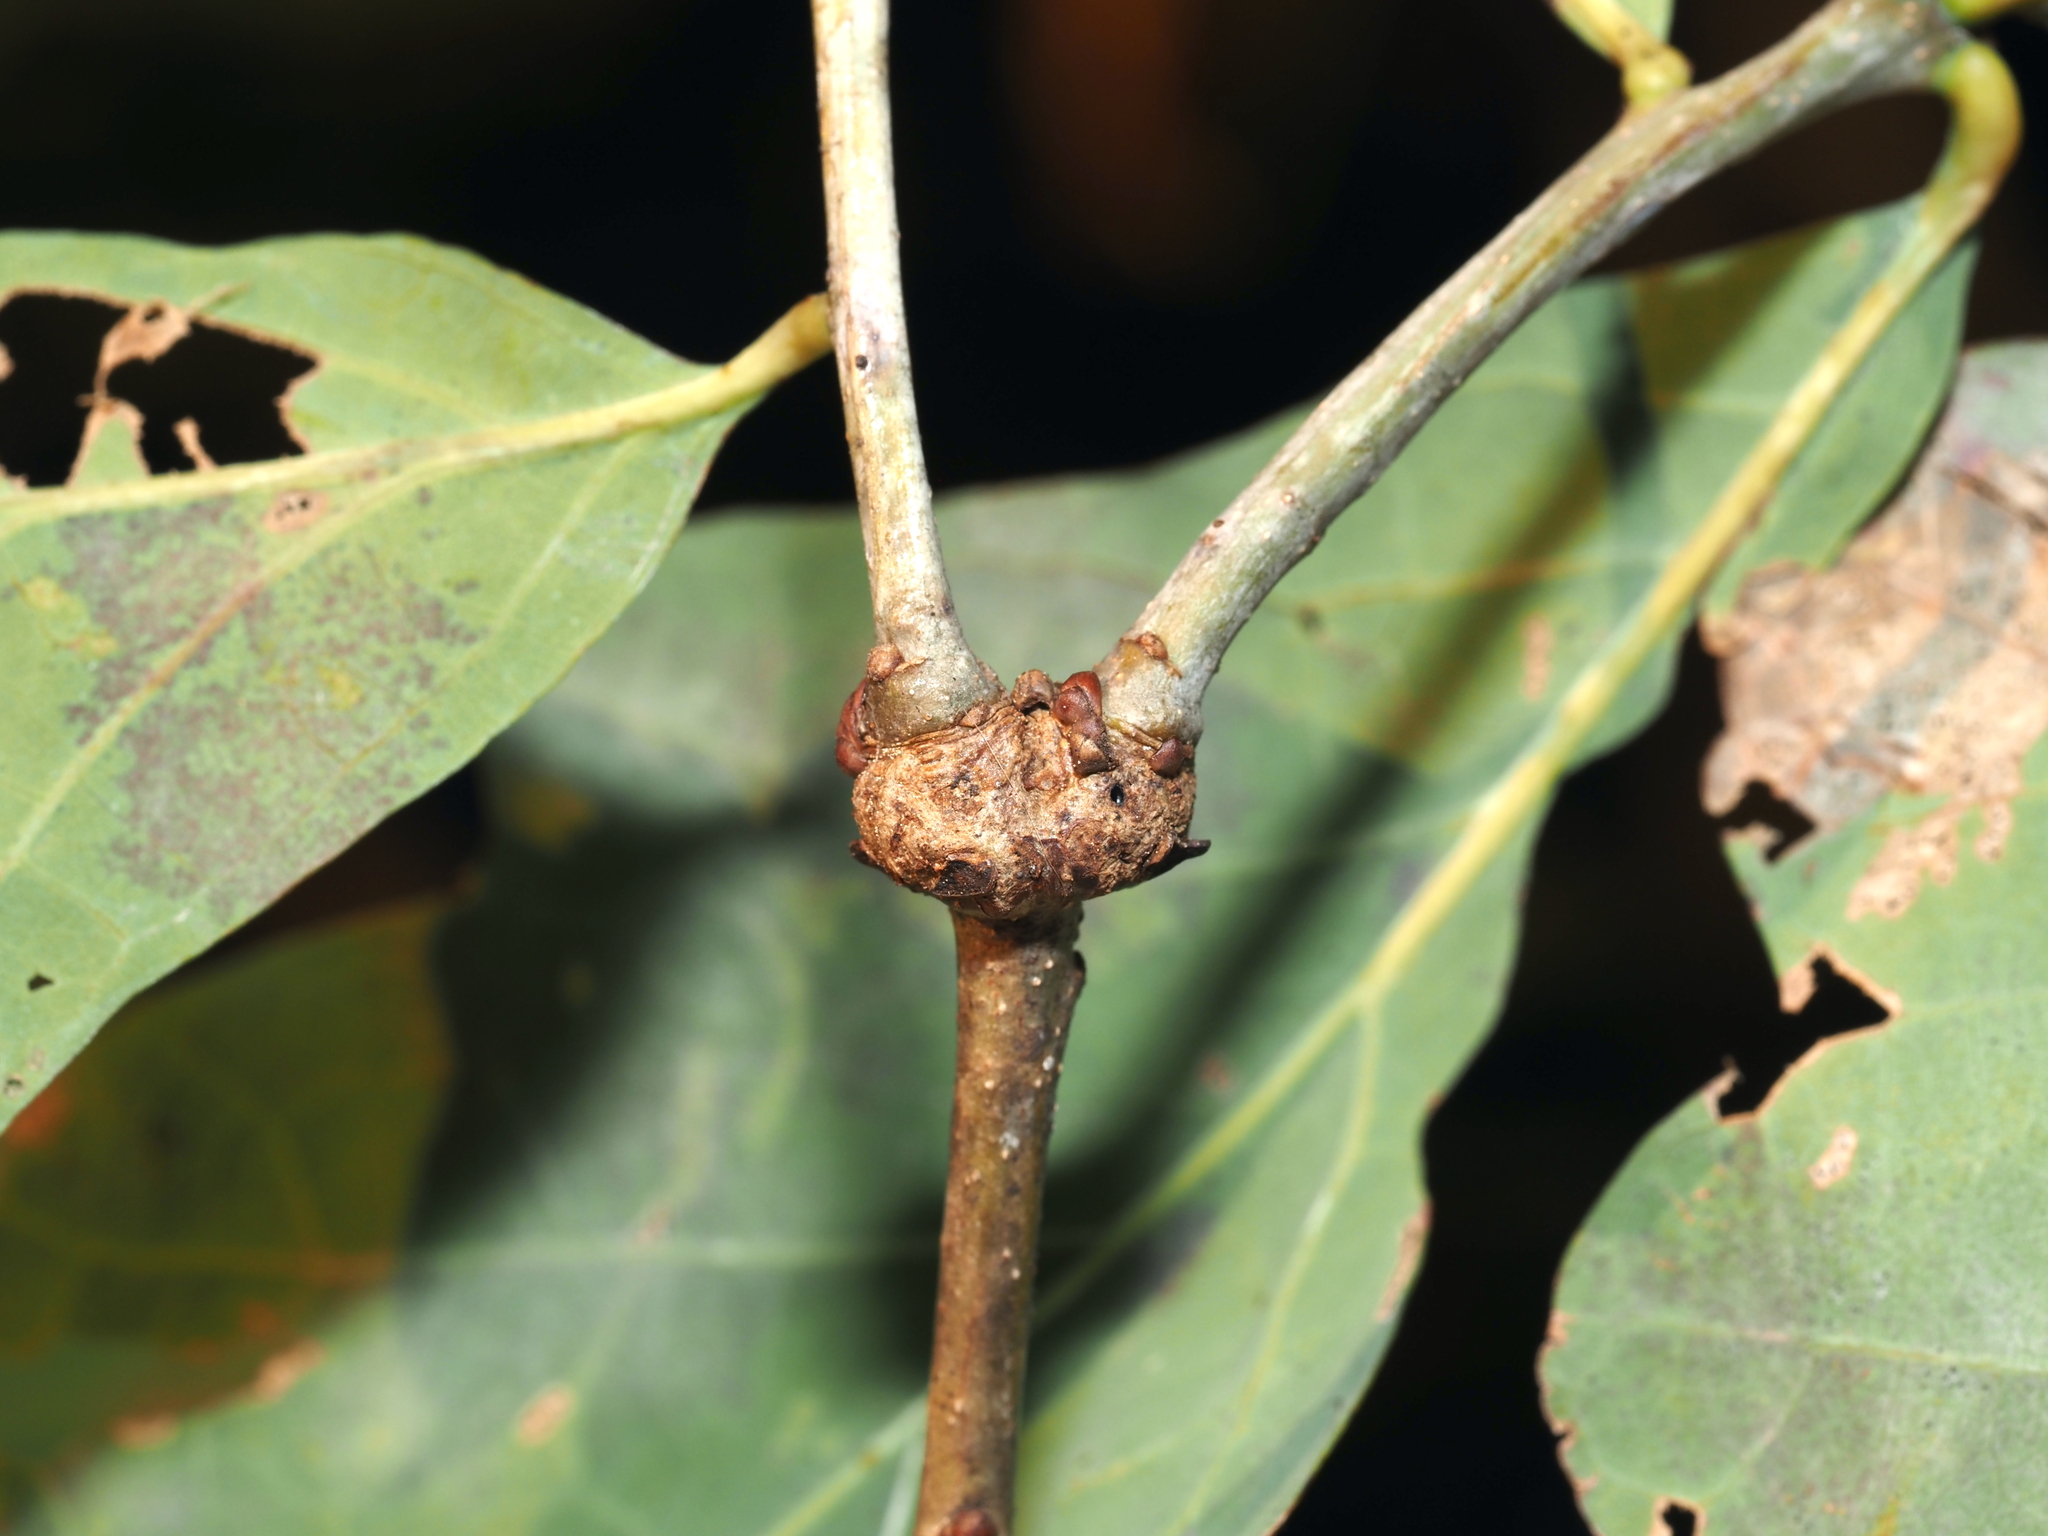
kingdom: Animalia
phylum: Arthropoda
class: Insecta
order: Hymenoptera
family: Cynipidae
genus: Loxaulus
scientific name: Loxaulus
